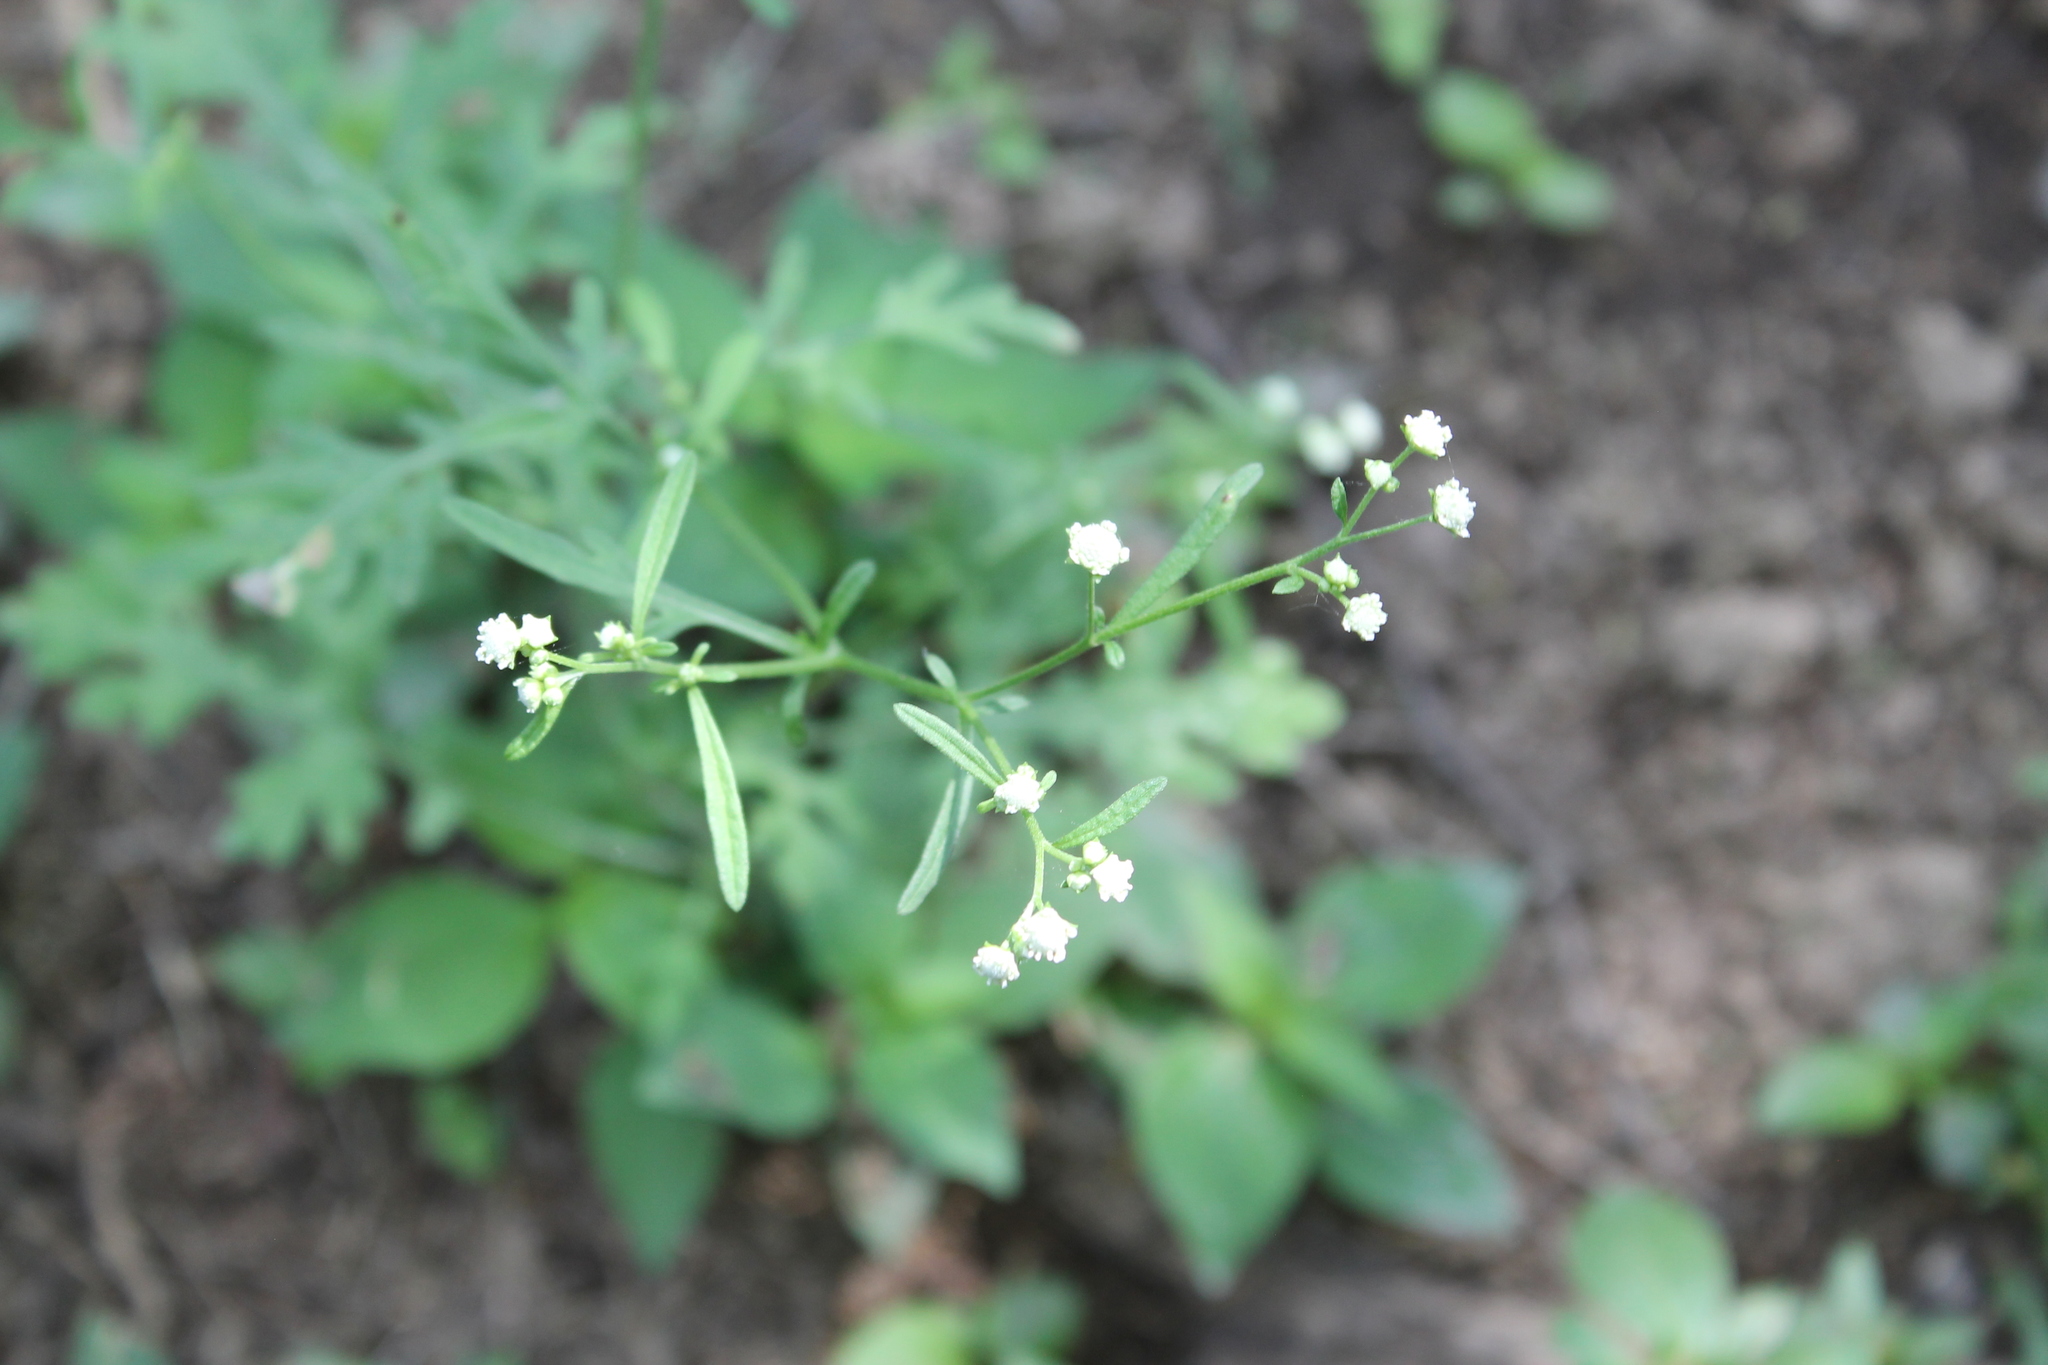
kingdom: Plantae
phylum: Tracheophyta
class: Magnoliopsida
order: Asterales
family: Asteraceae
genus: Parthenium
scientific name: Parthenium hysterophorus
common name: Santa maria feverfew
